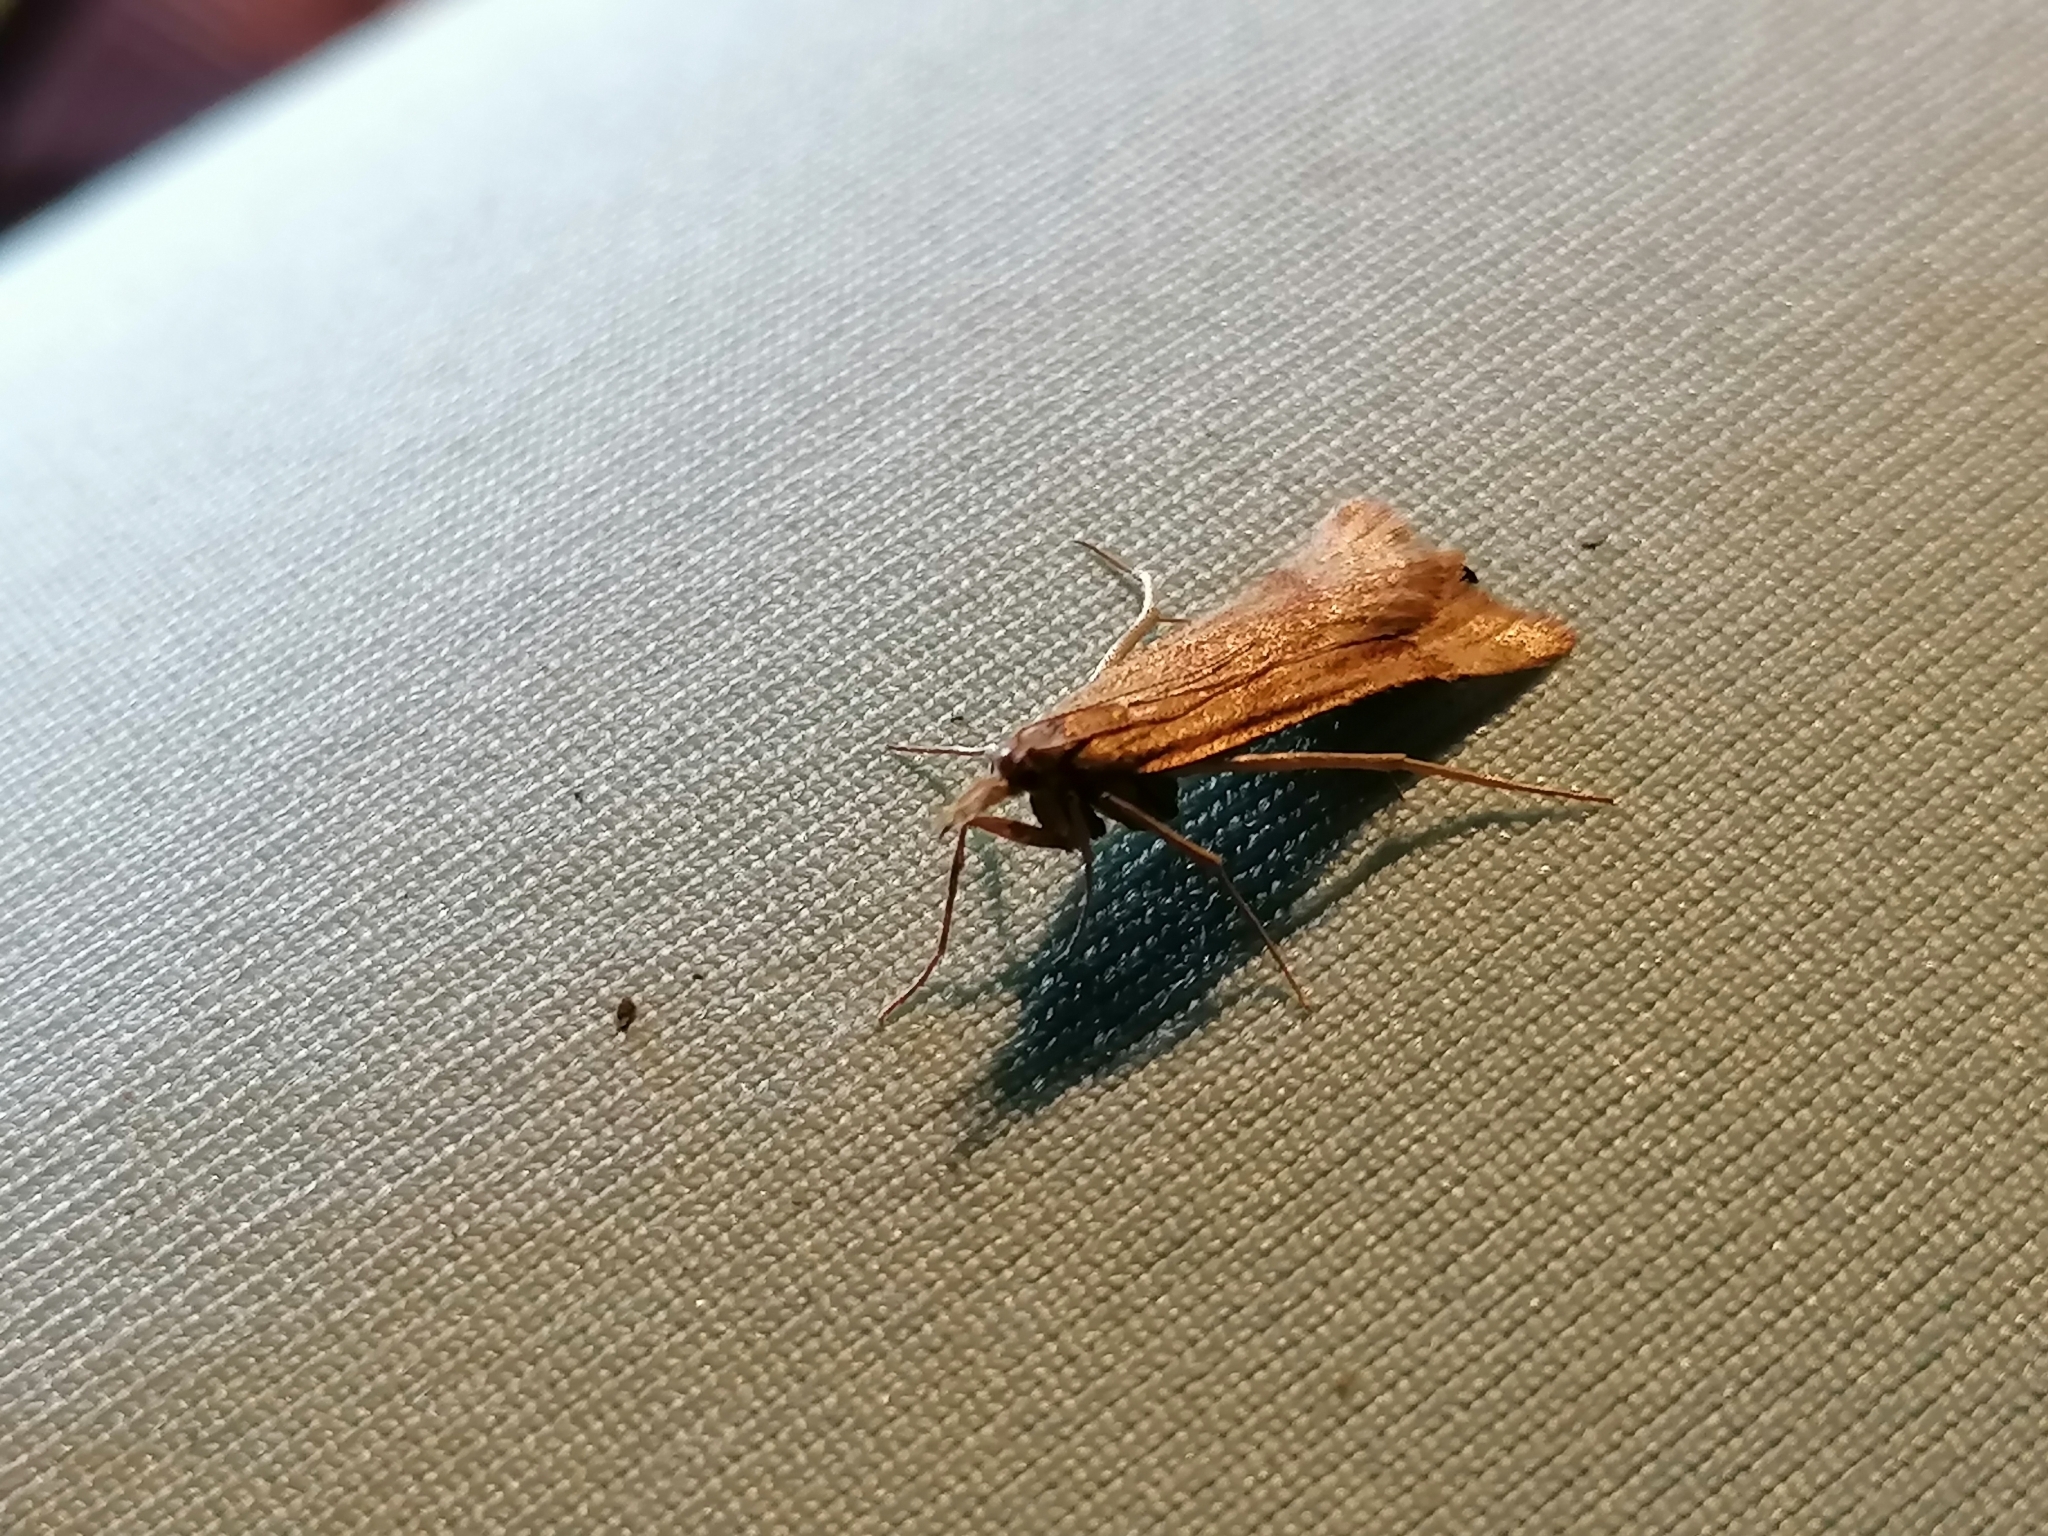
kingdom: Animalia
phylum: Arthropoda
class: Insecta
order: Lepidoptera
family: Pyralidae
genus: Synaphe
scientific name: Synaphe punctalis
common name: Long-legged tabby
